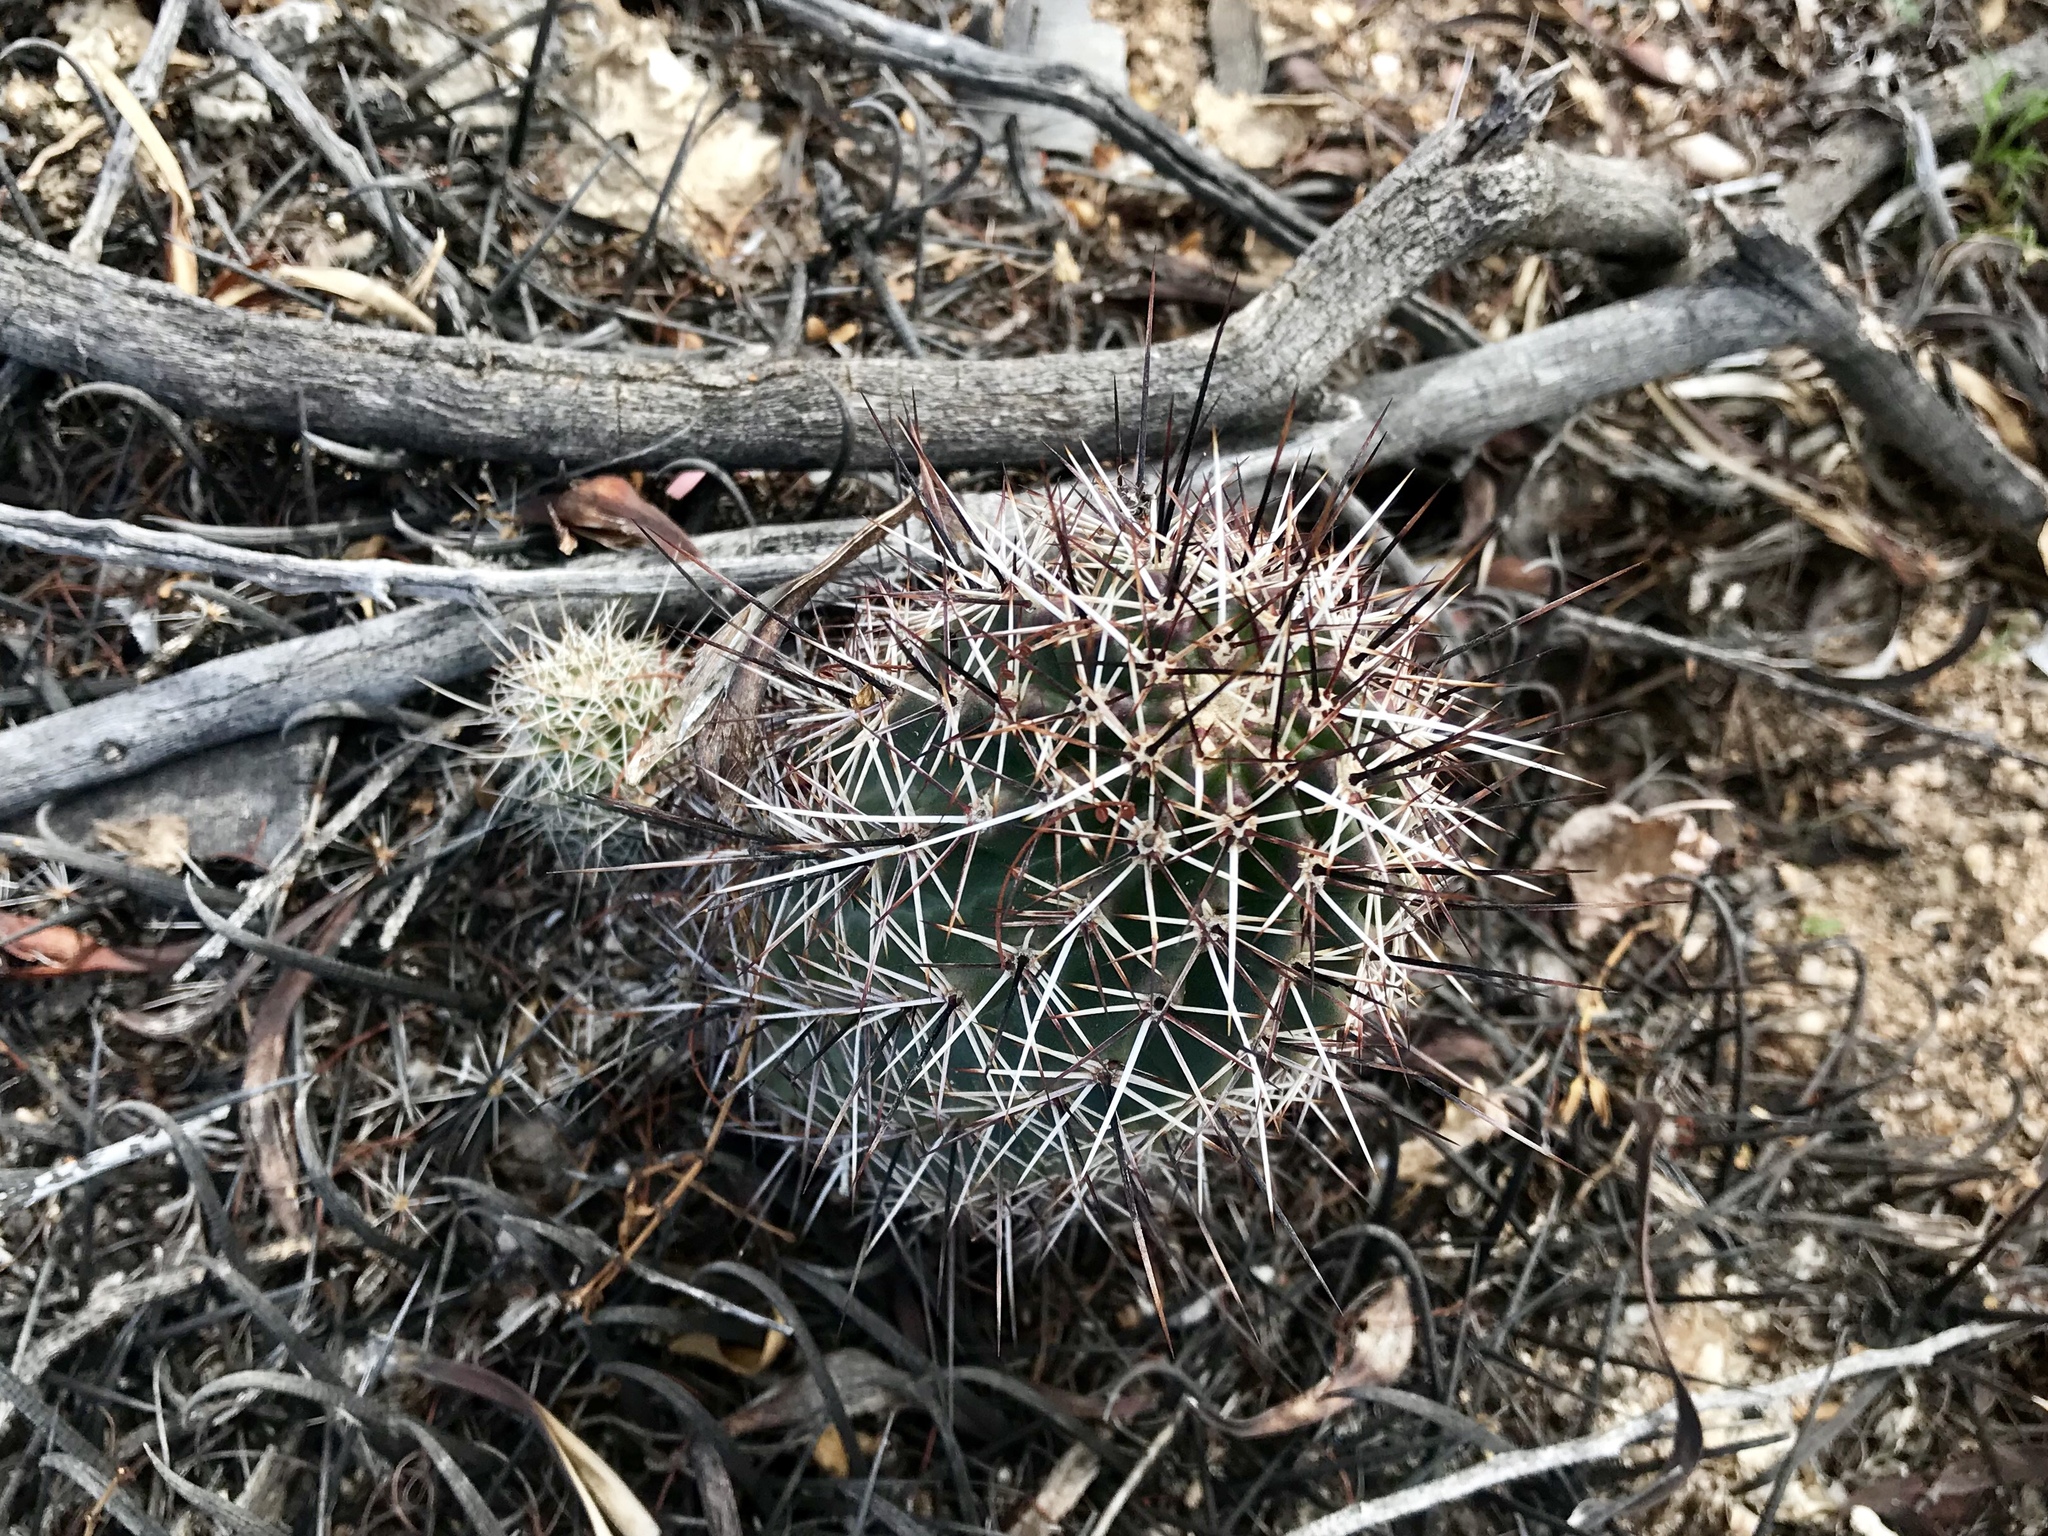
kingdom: Plantae
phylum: Tracheophyta
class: Magnoliopsida
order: Caryophyllales
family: Cactaceae
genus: Echinocereus
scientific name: Echinocereus fasciculatus
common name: Bundle hedgehog
